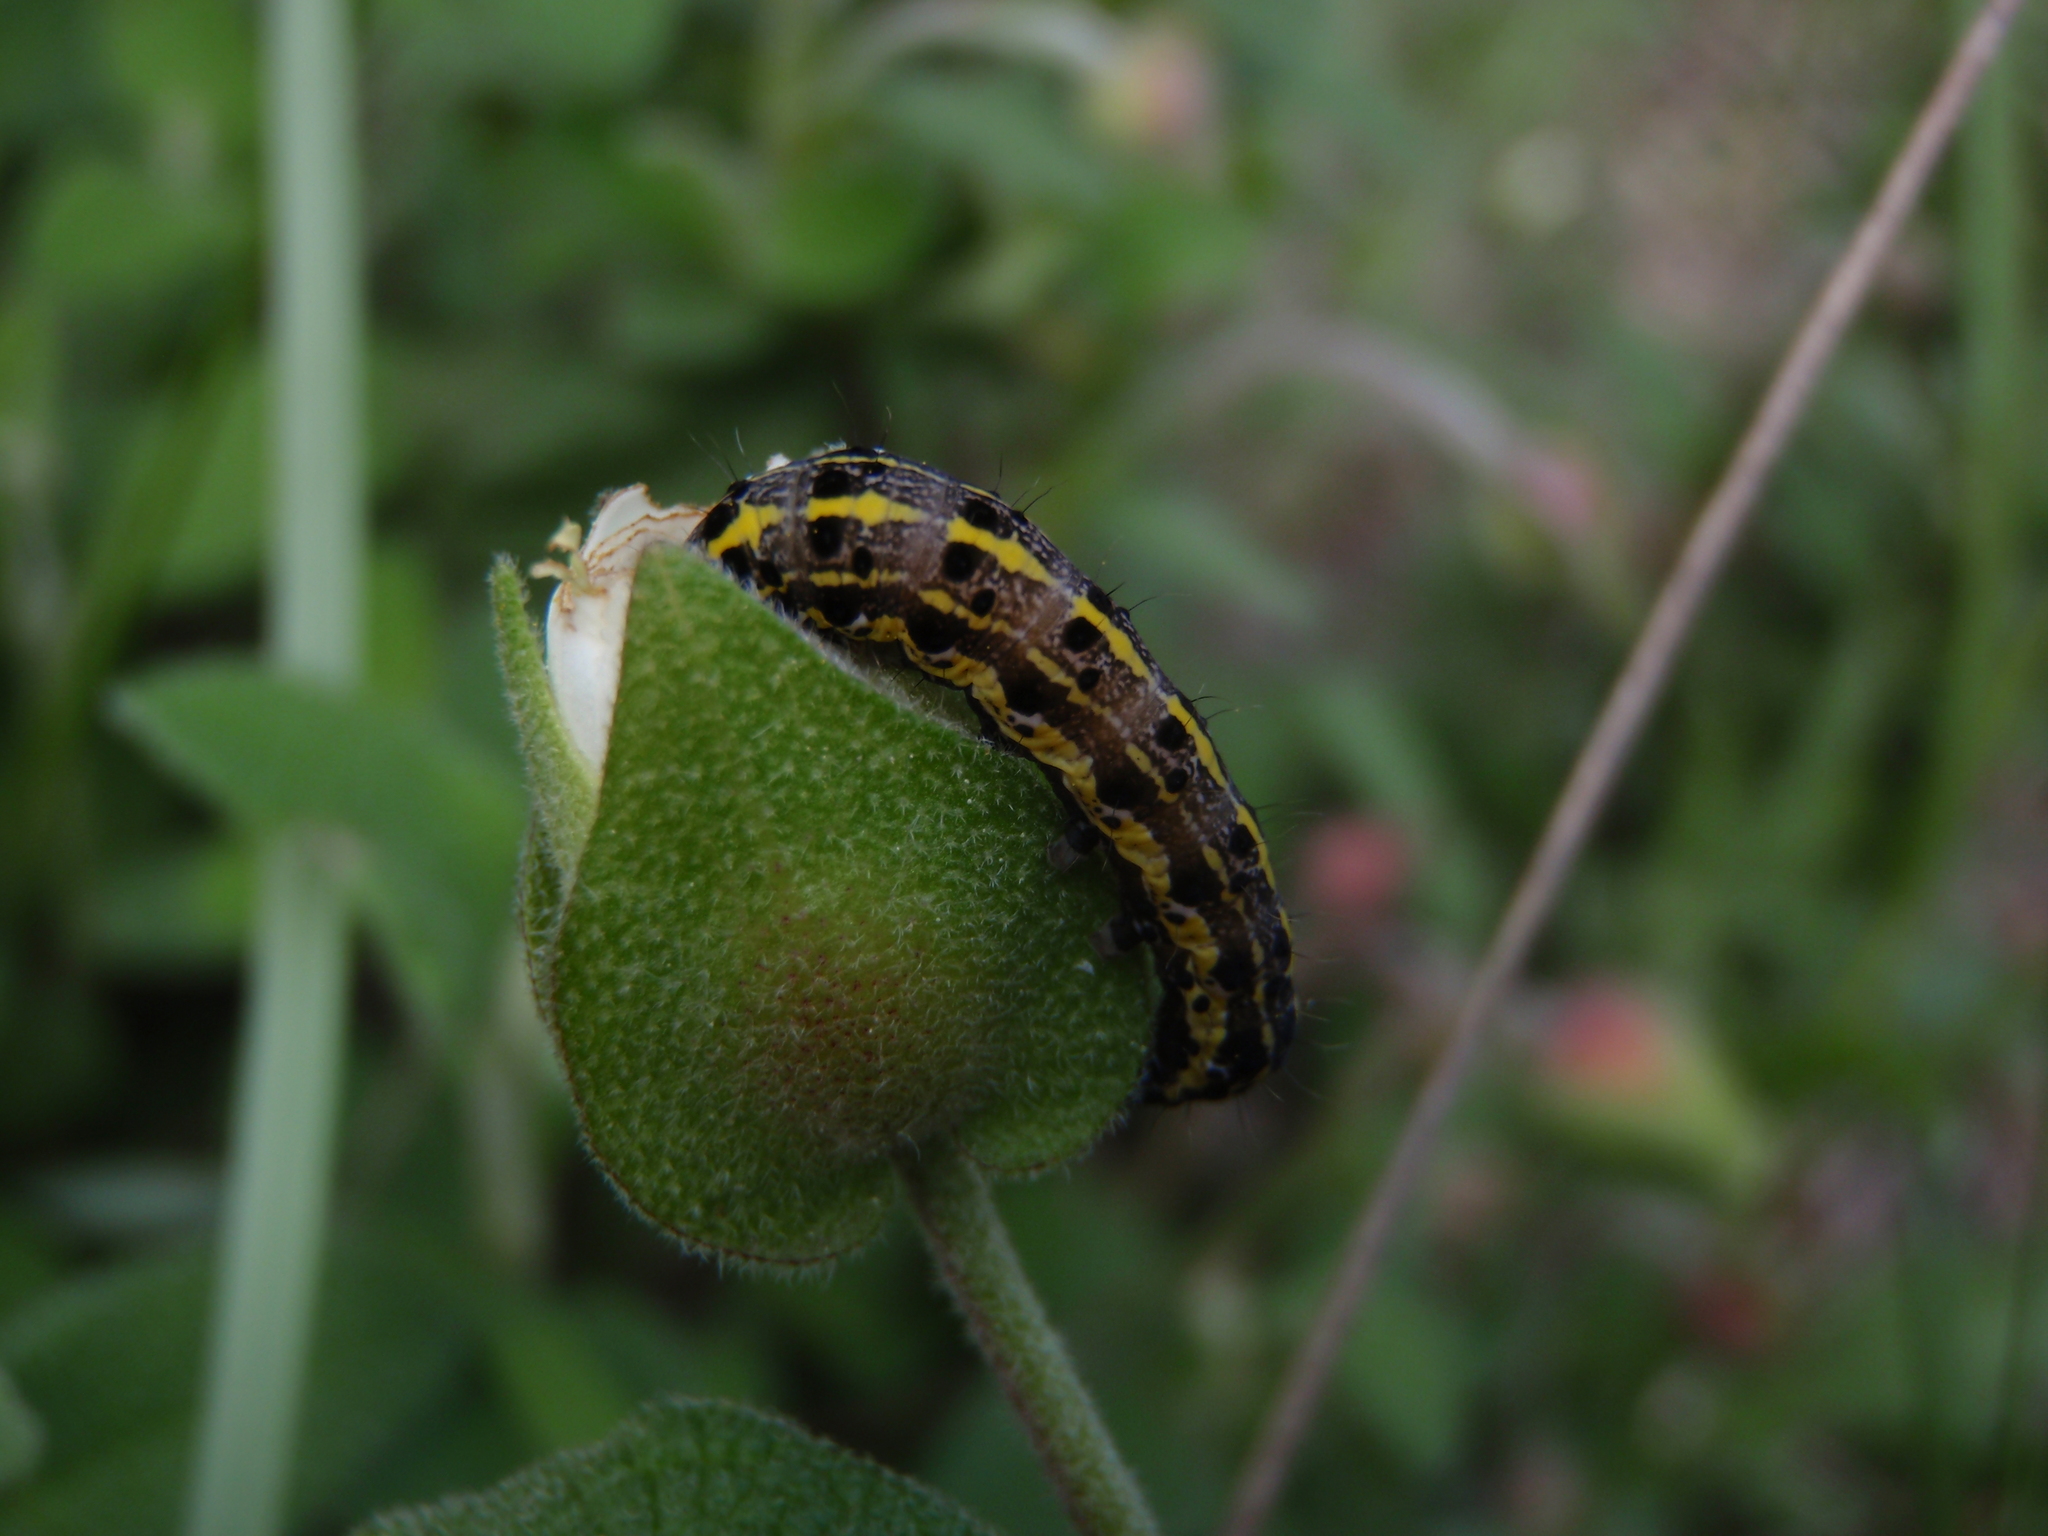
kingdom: Animalia
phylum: Arthropoda
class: Insecta
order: Lepidoptera
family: Noctuidae
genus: Orthosia
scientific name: Orthosia miniosa
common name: Blossom underwing
